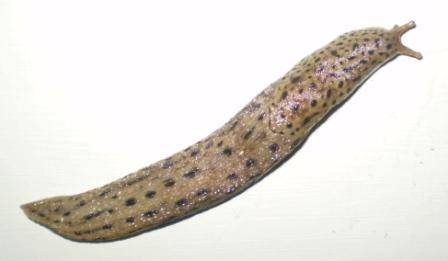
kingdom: Animalia
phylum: Mollusca
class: Gastropoda
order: Stylommatophora
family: Limacidae
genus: Limax
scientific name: Limax maximus
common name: Great grey slug
